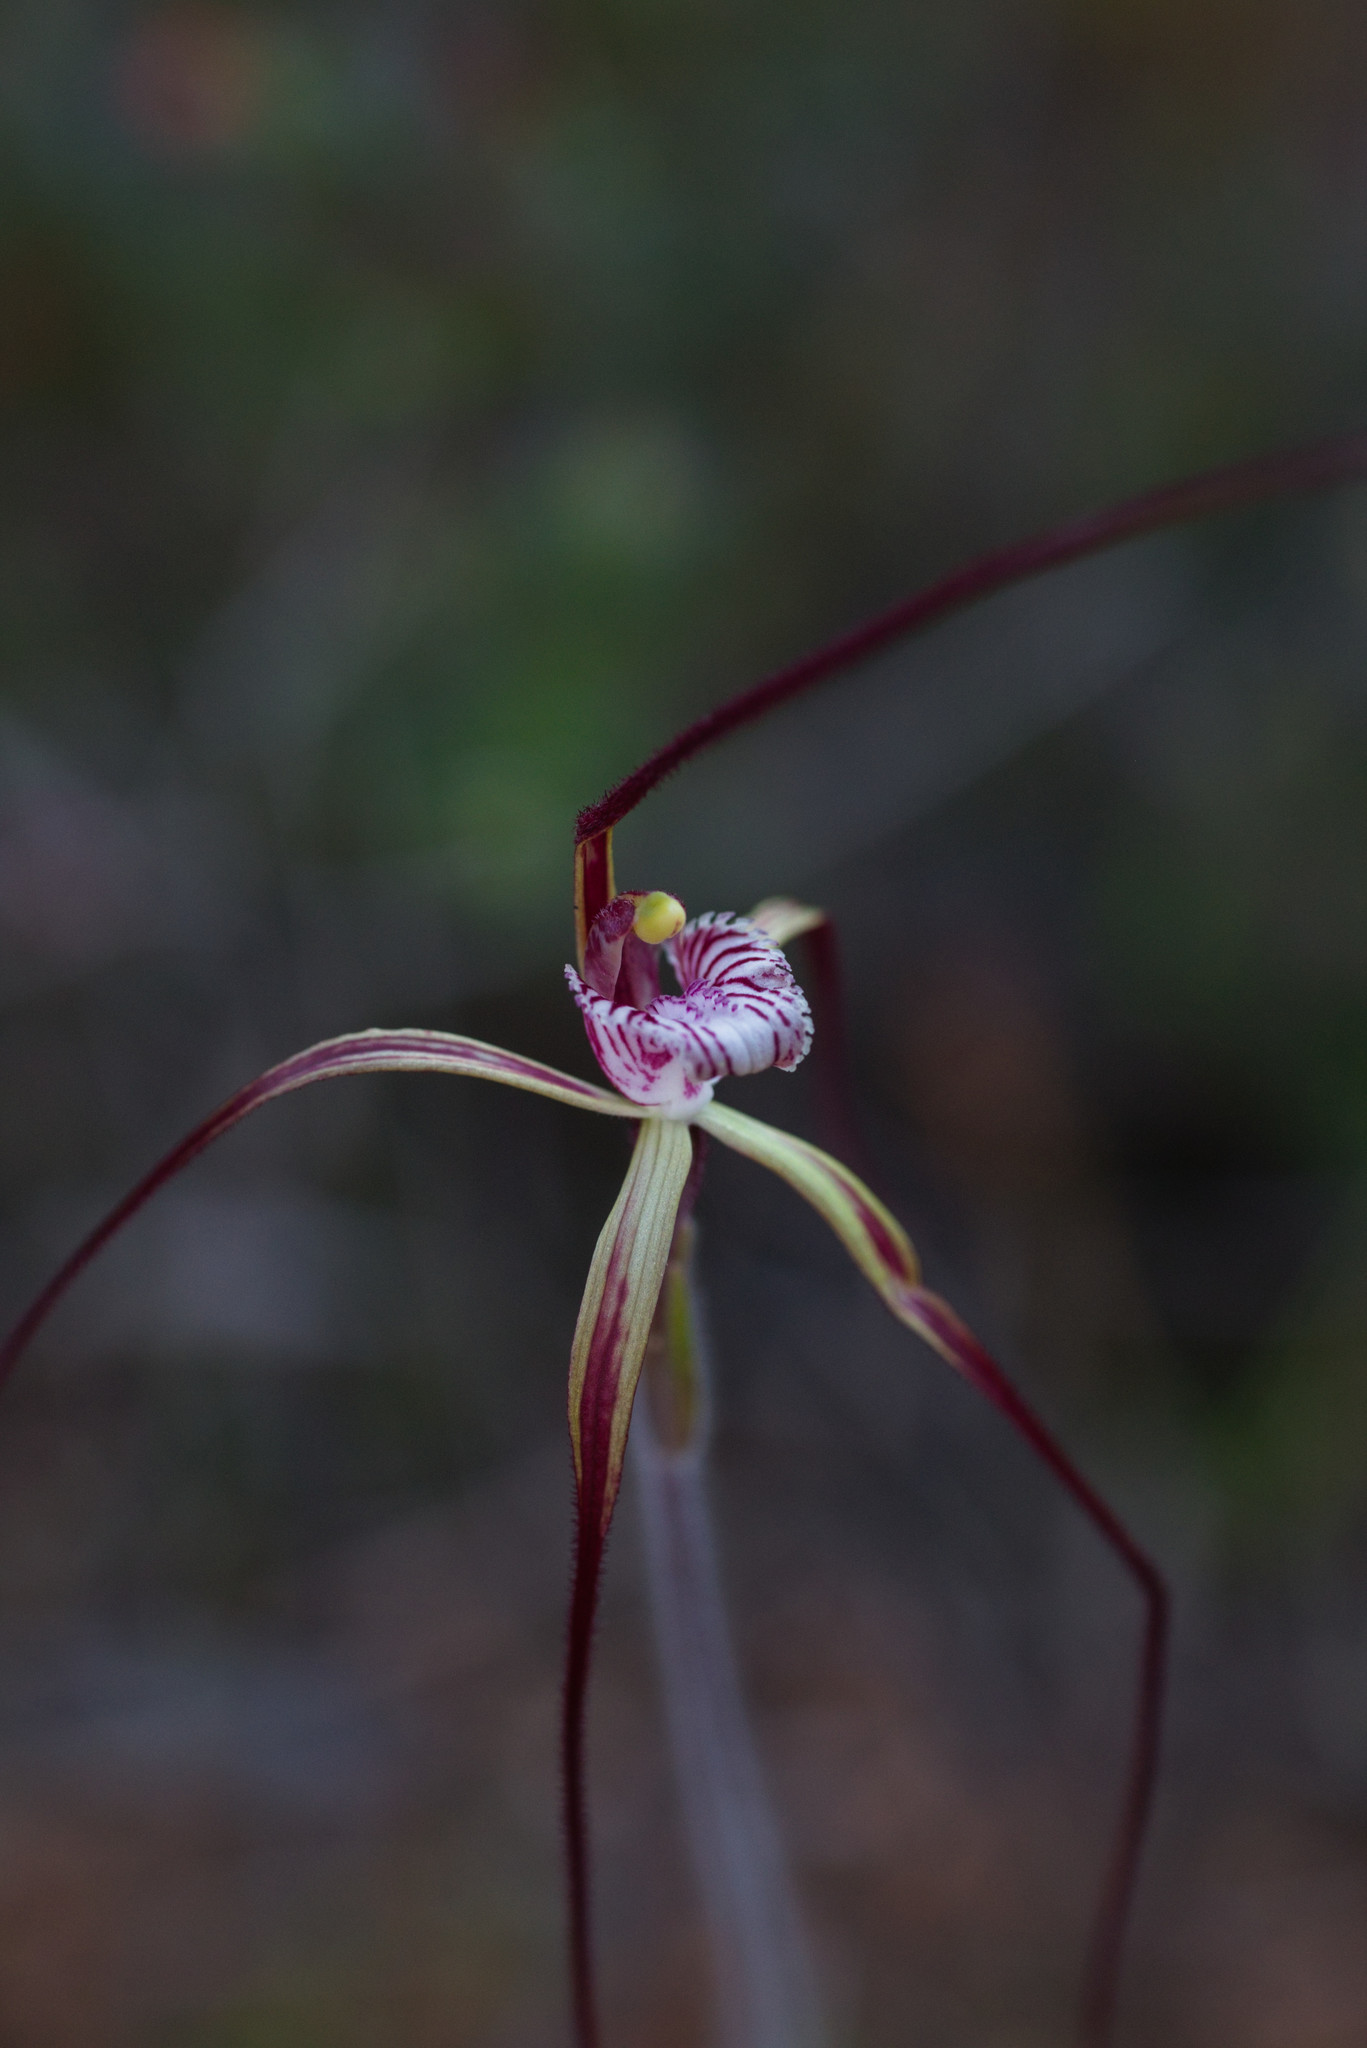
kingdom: Plantae
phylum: Tracheophyta
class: Liliopsida
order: Asparagales
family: Orchidaceae
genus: Caladenia
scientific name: Caladenia chapmanii
